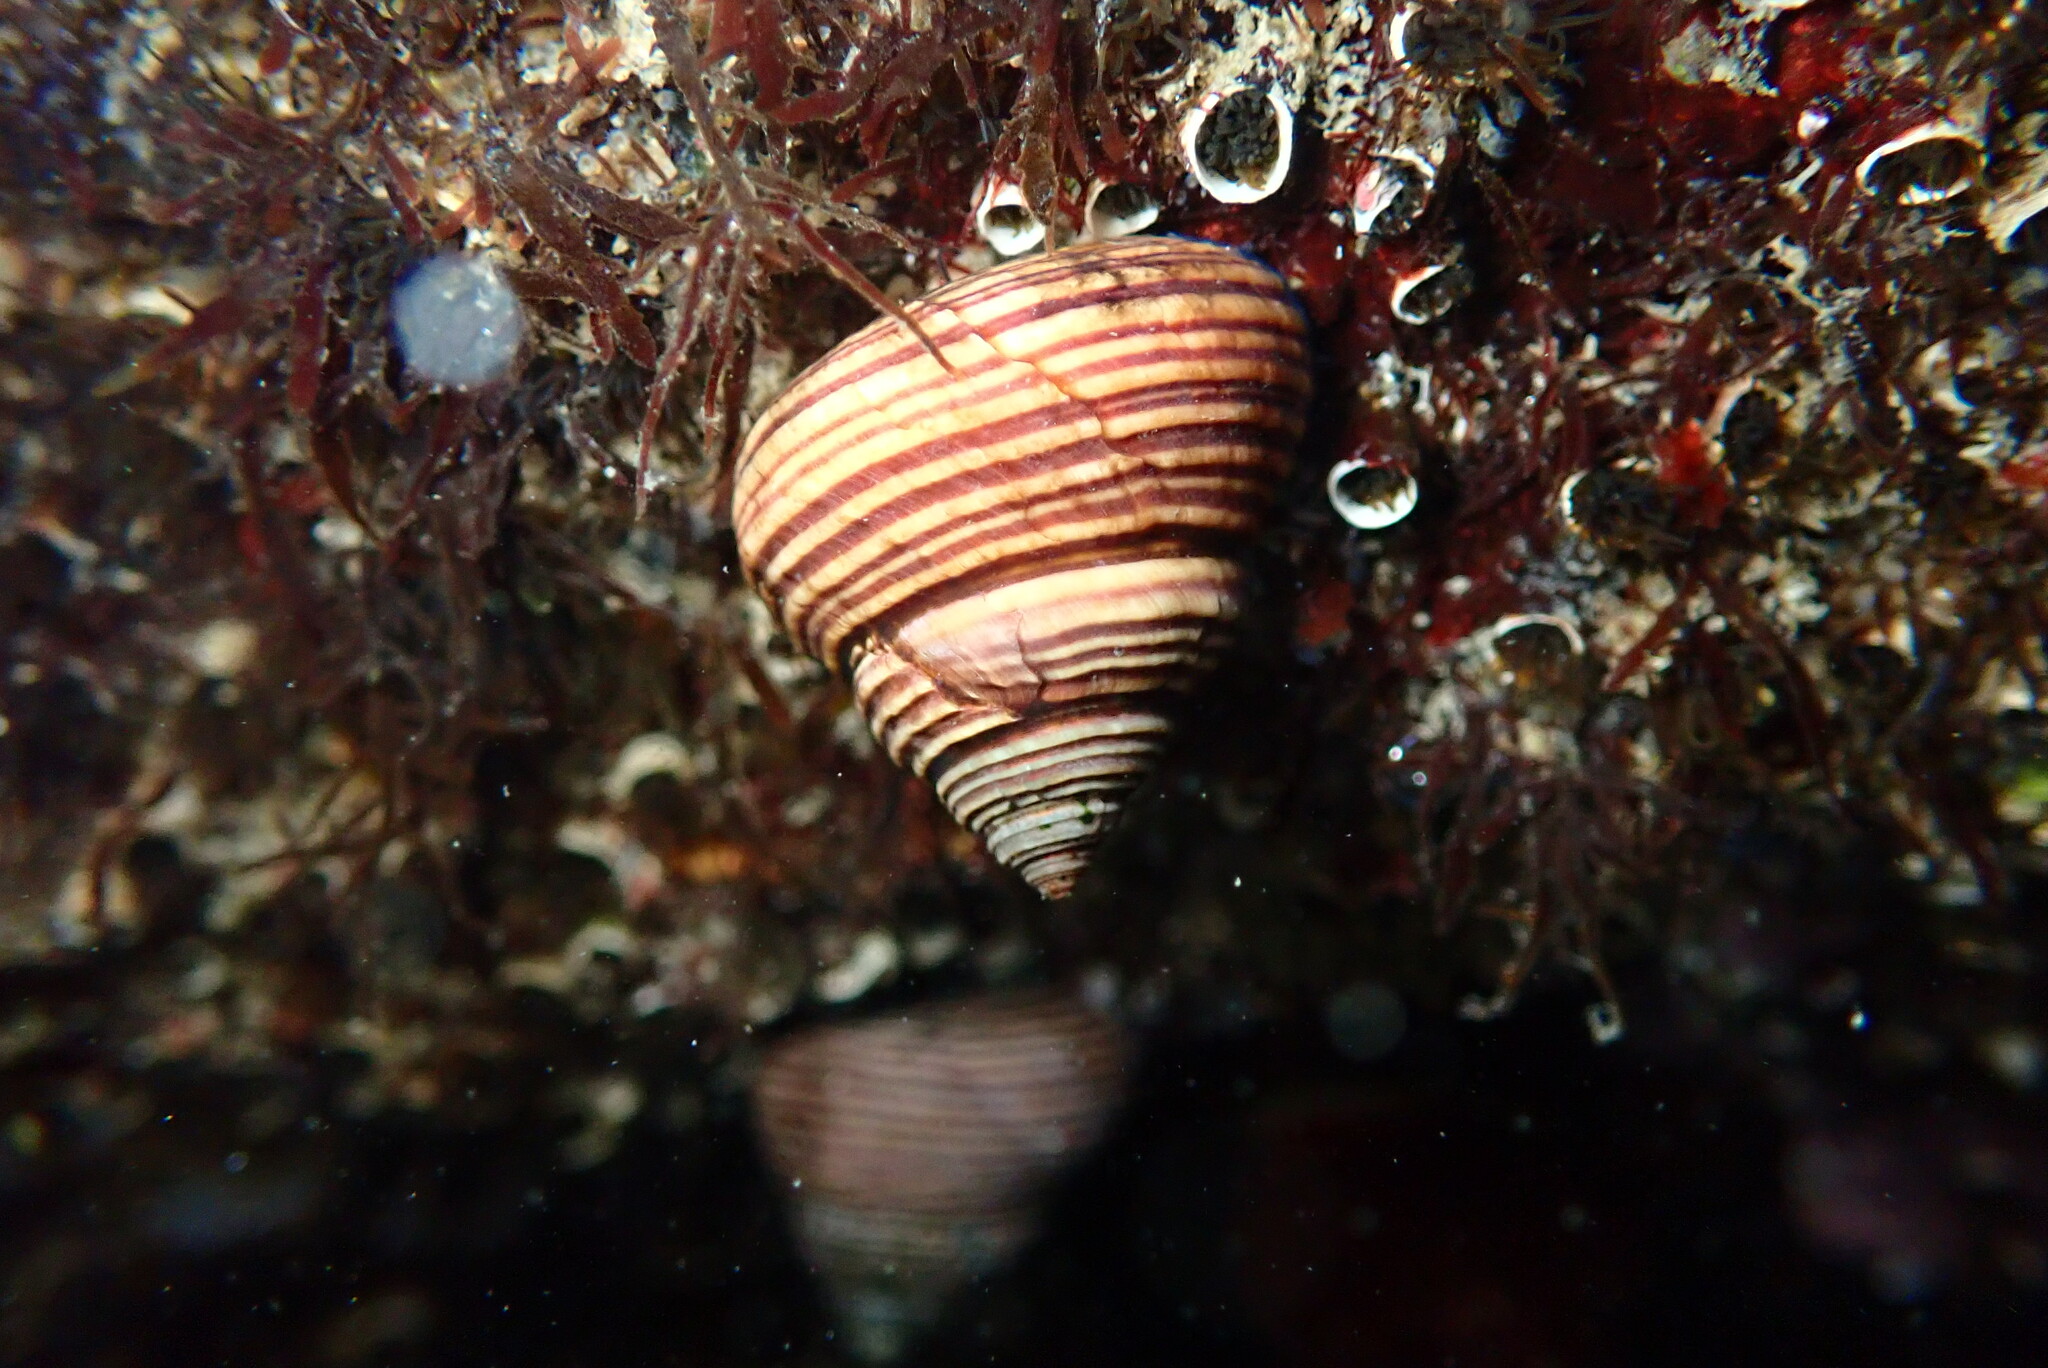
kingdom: Animalia
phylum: Mollusca
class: Gastropoda
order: Trochida
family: Calliostomatidae
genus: Calliostoma
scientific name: Calliostoma ligatum
